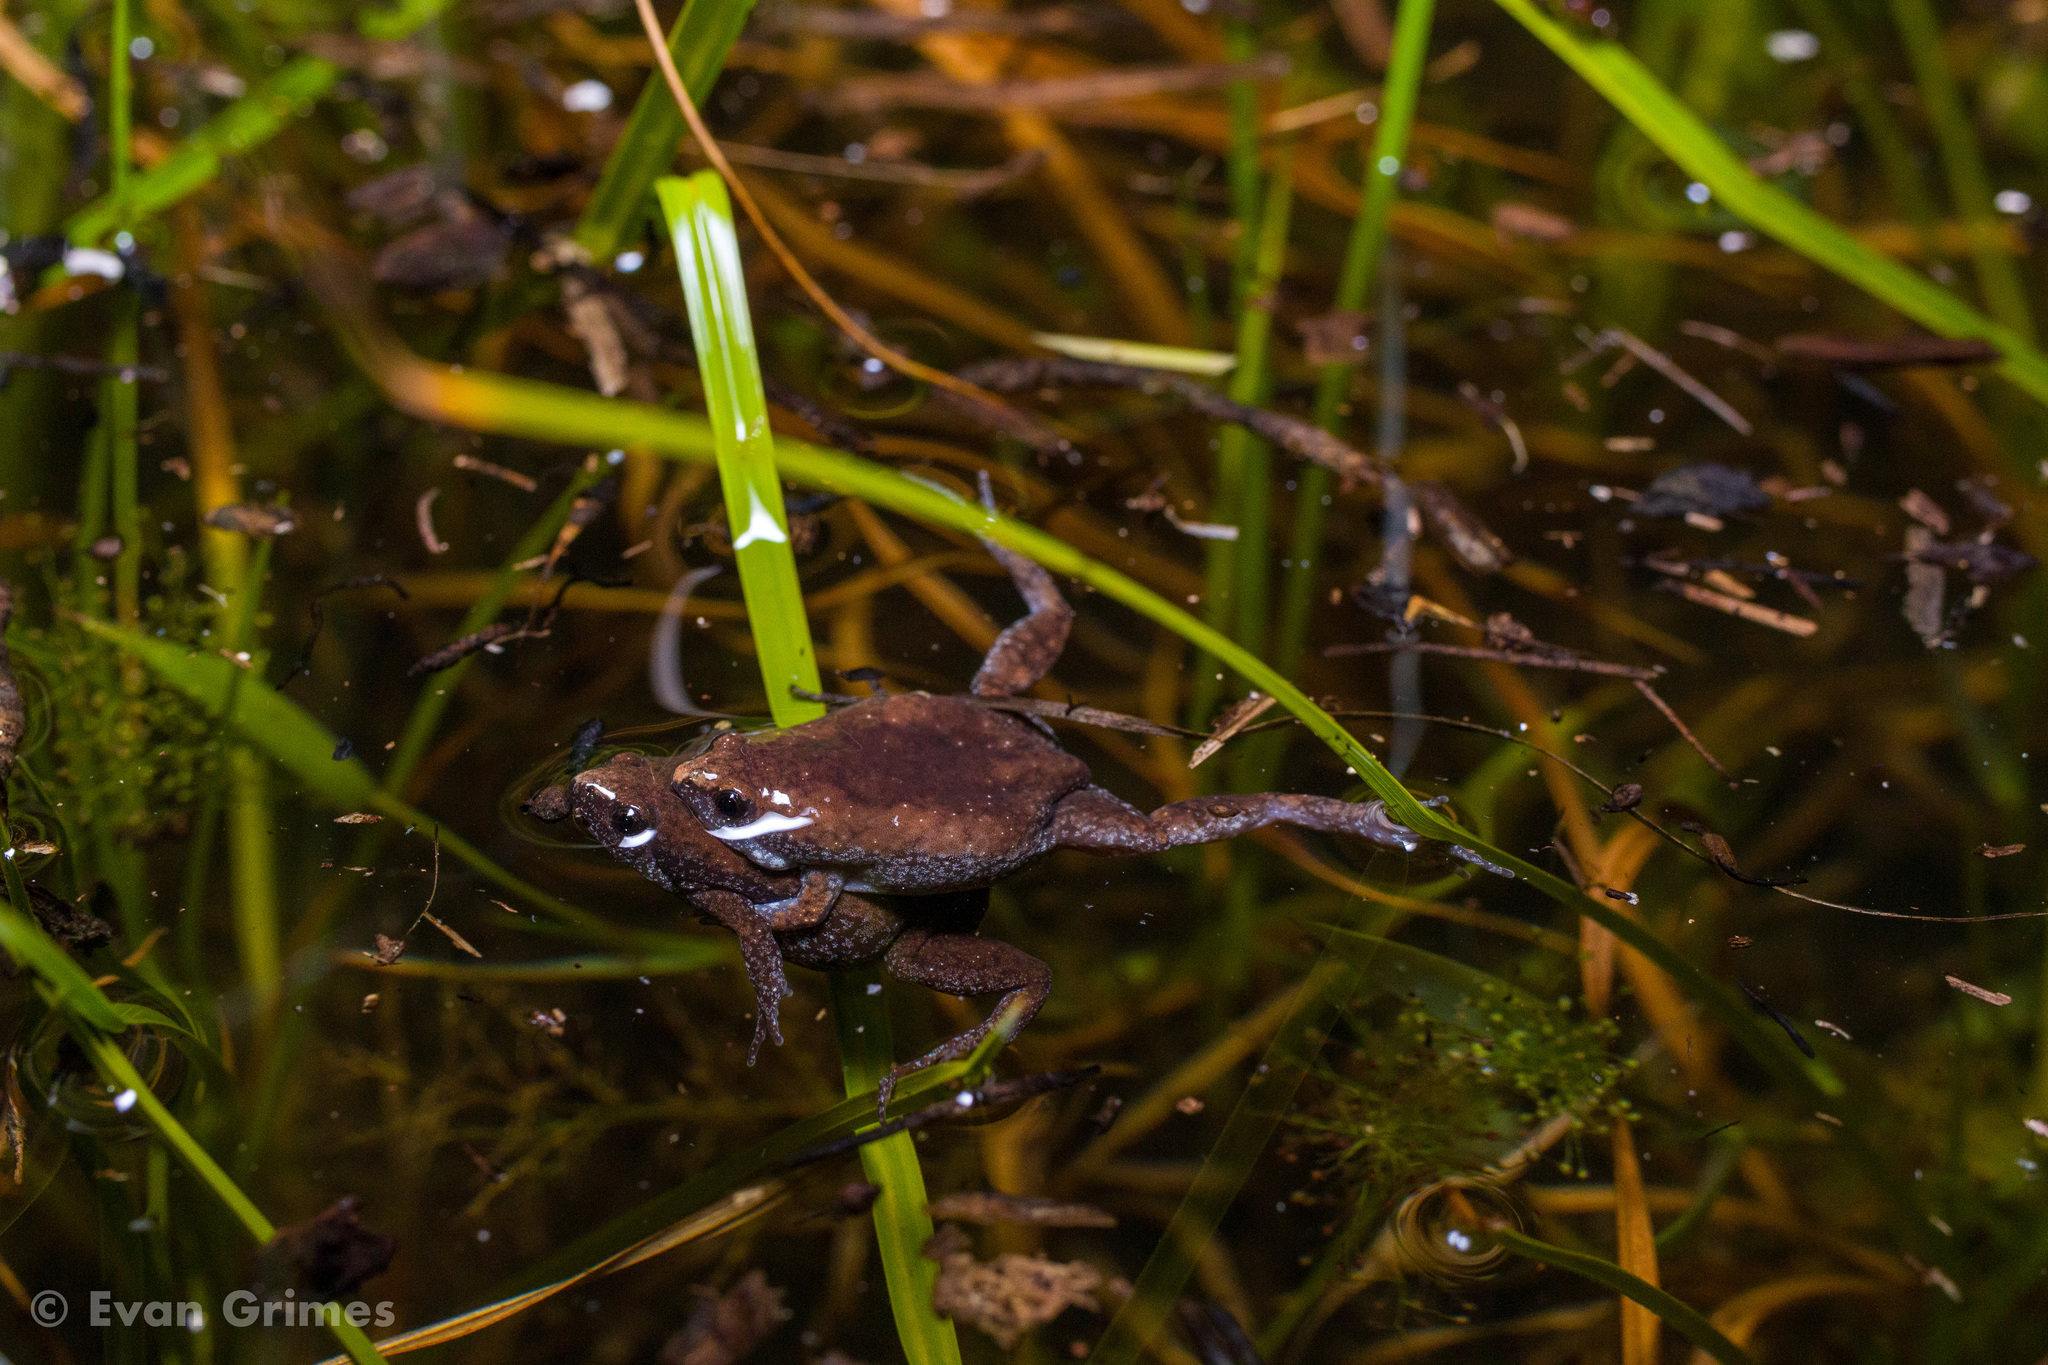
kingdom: Animalia
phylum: Chordata
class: Amphibia
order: Anura
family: Microhylidae
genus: Gastrophryne
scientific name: Gastrophryne carolinensis
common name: Eastern narrowmouth toad
